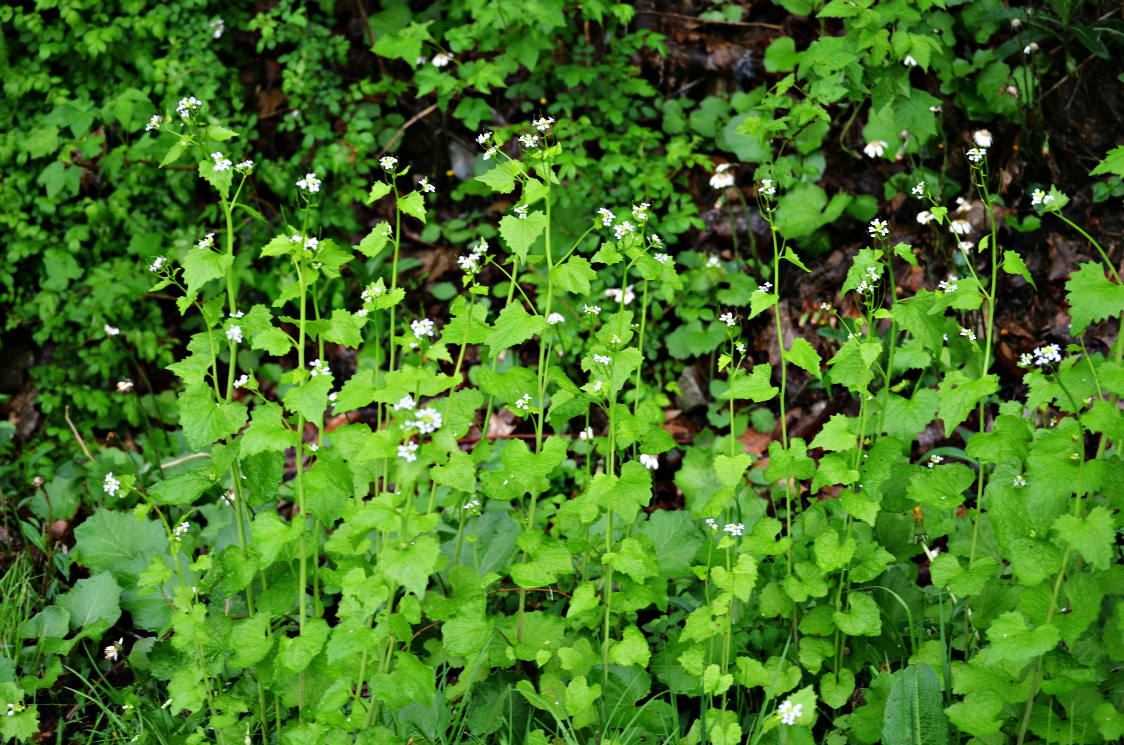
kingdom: Plantae
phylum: Tracheophyta
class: Magnoliopsida
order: Brassicales
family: Brassicaceae
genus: Alliaria
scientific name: Alliaria petiolata
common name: Garlic mustard
